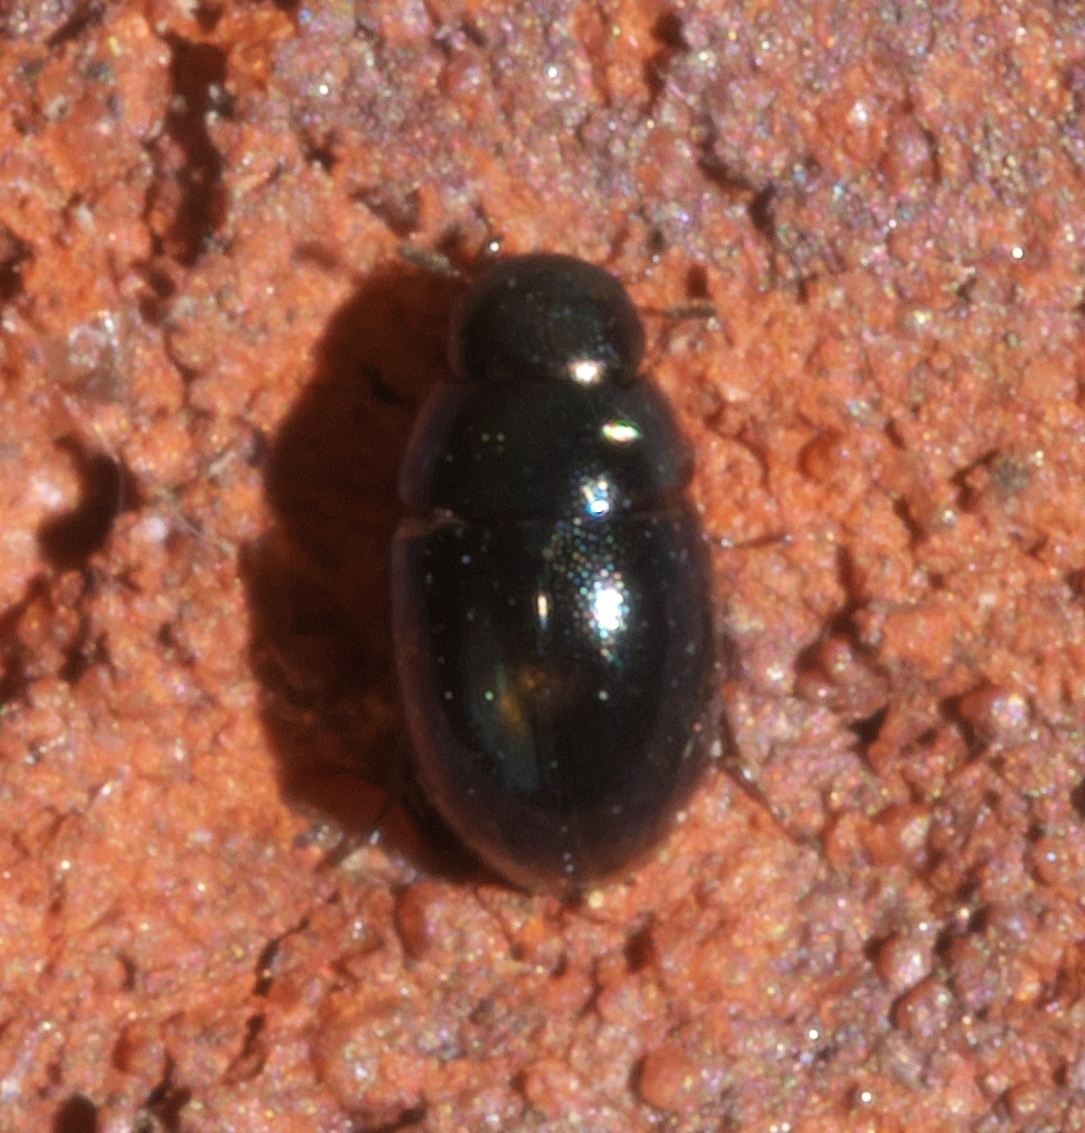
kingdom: Animalia
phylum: Arthropoda
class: Insecta
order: Coleoptera
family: Hydrophilidae
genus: Paracymus
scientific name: Paracymus
